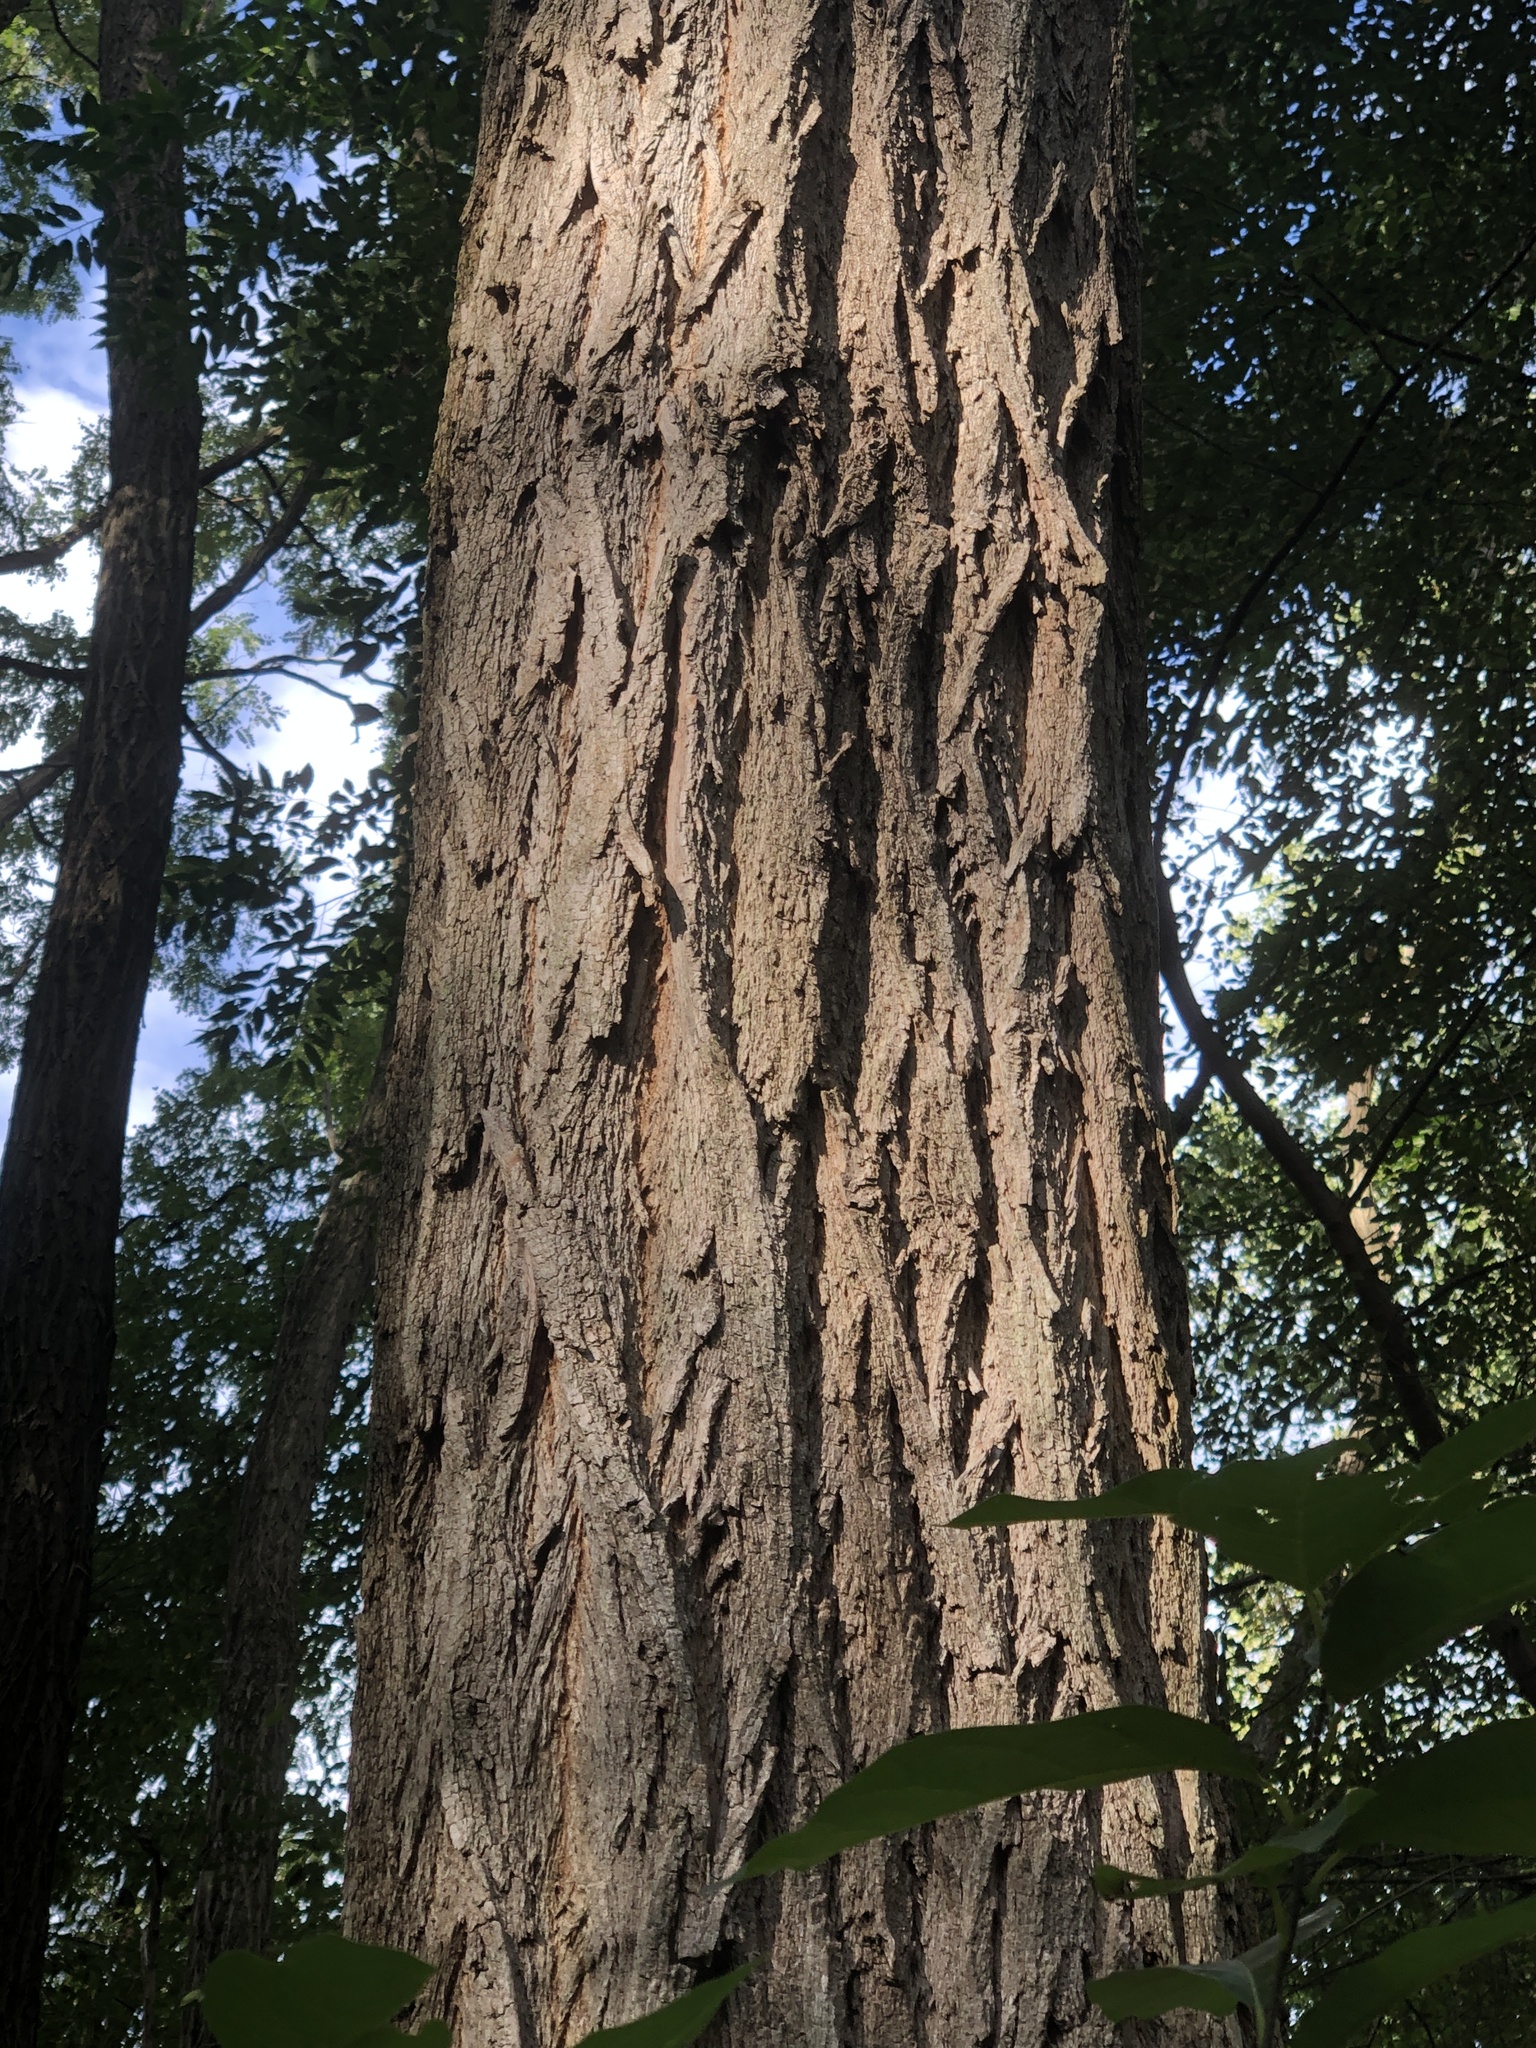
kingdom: Plantae
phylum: Tracheophyta
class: Magnoliopsida
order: Fabales
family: Fabaceae
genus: Robinia
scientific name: Robinia pseudoacacia
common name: Black locust
